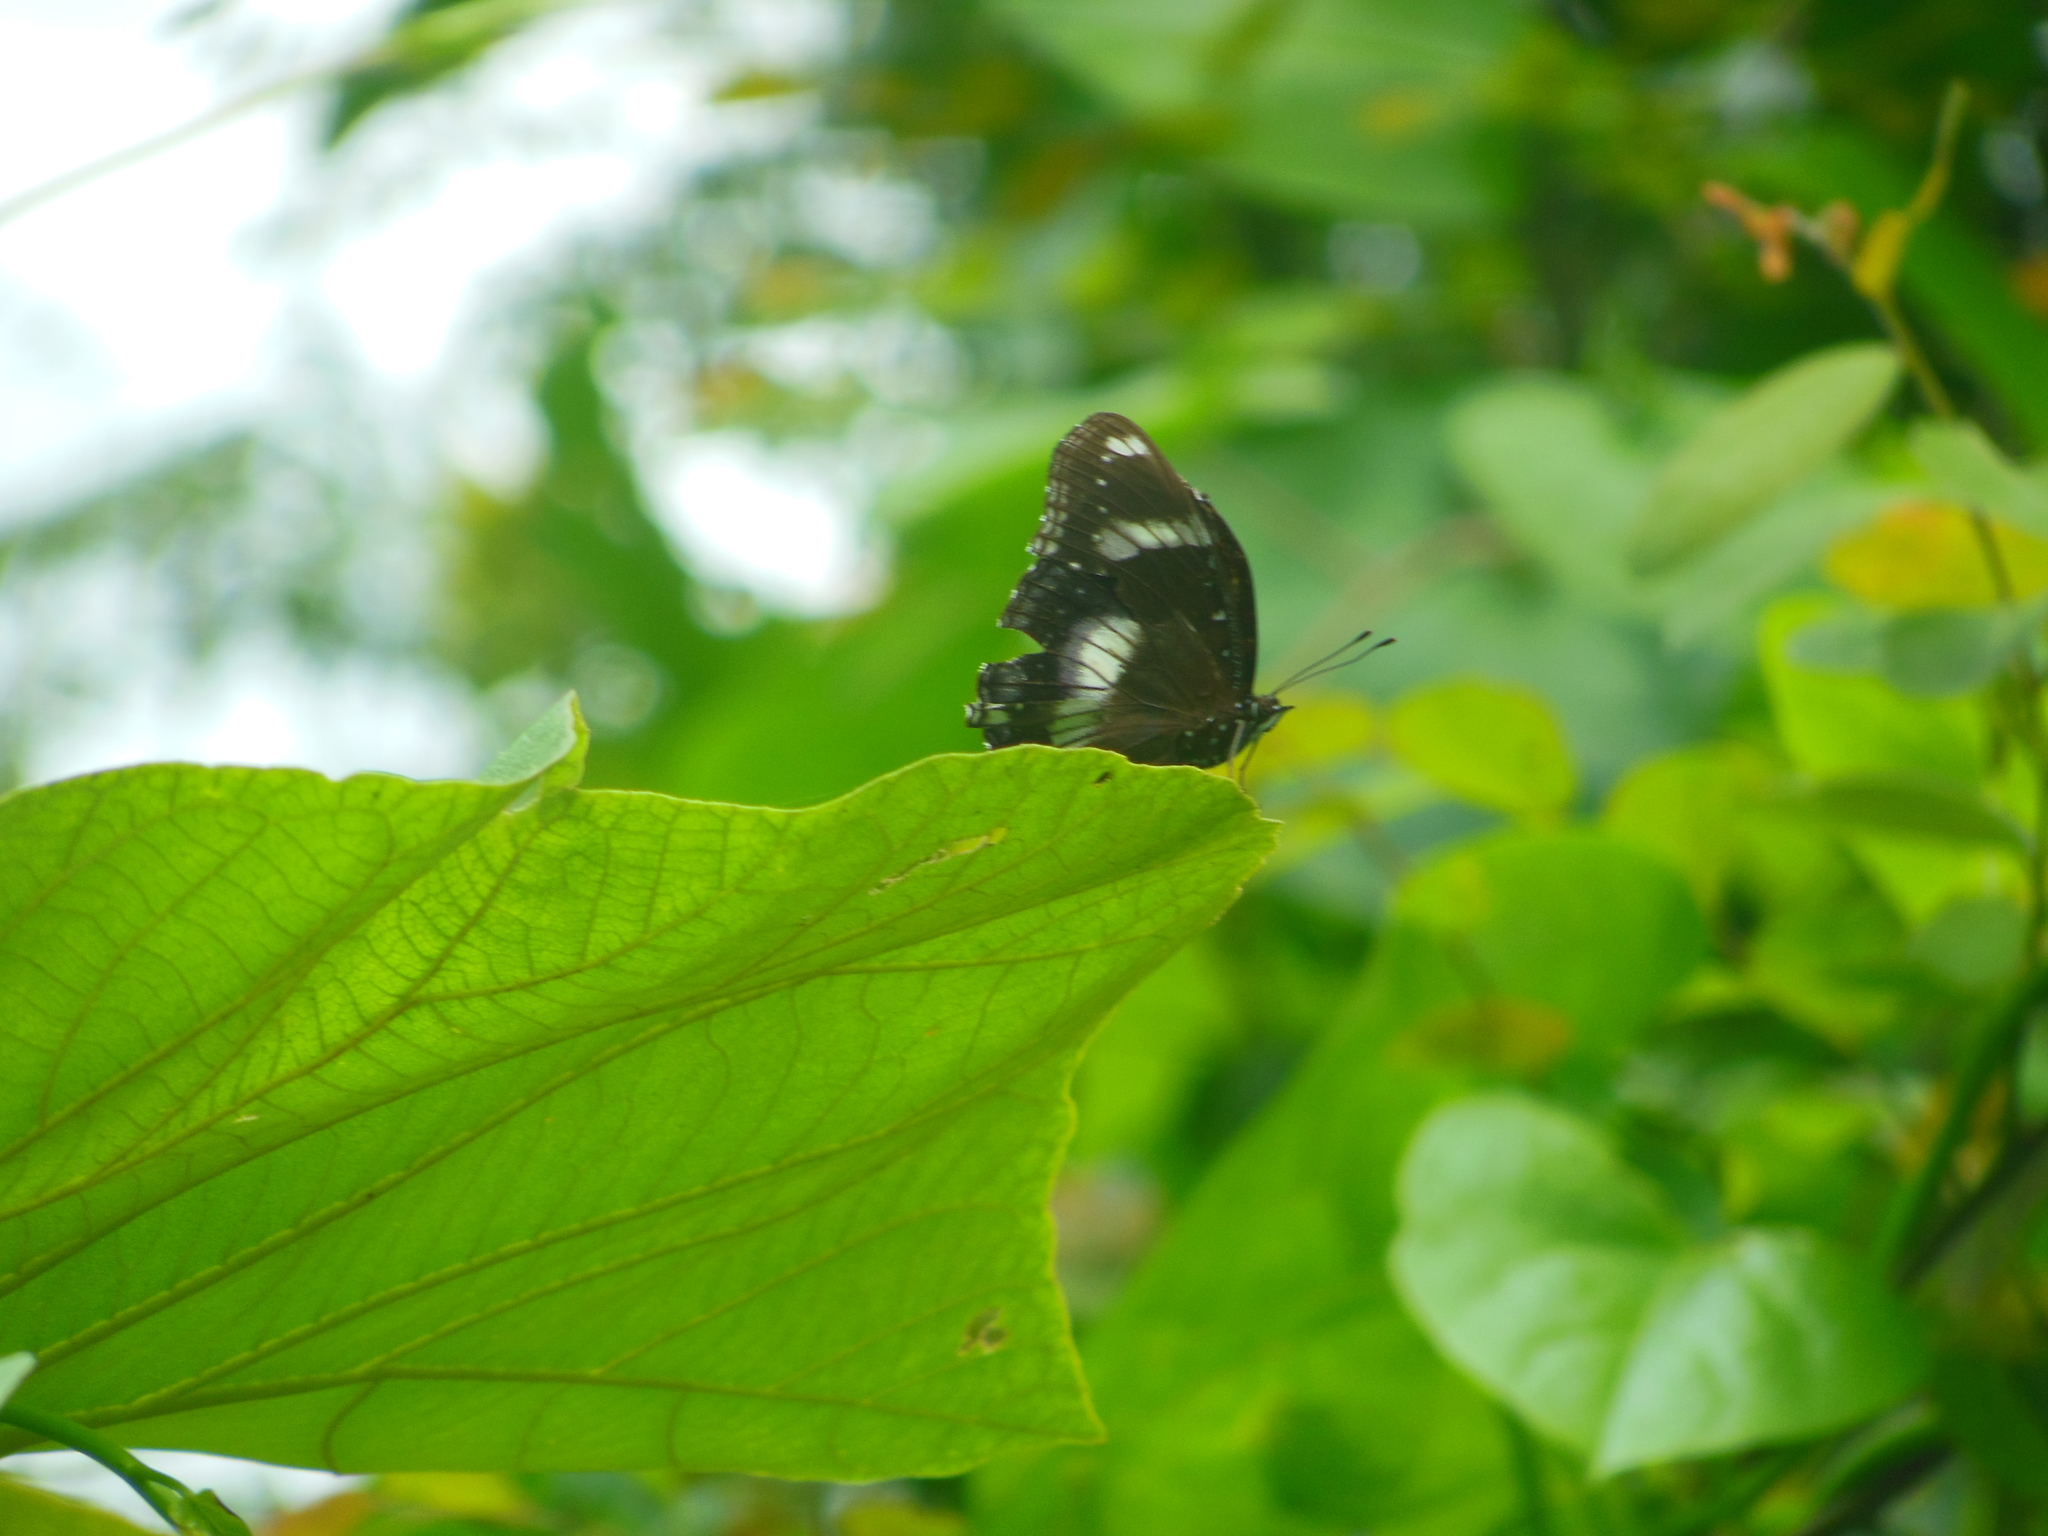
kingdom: Animalia
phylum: Arthropoda
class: Insecta
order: Lepidoptera
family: Nymphalidae
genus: Hypolimnas
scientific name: Hypolimnas bolina
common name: Great eggfly
